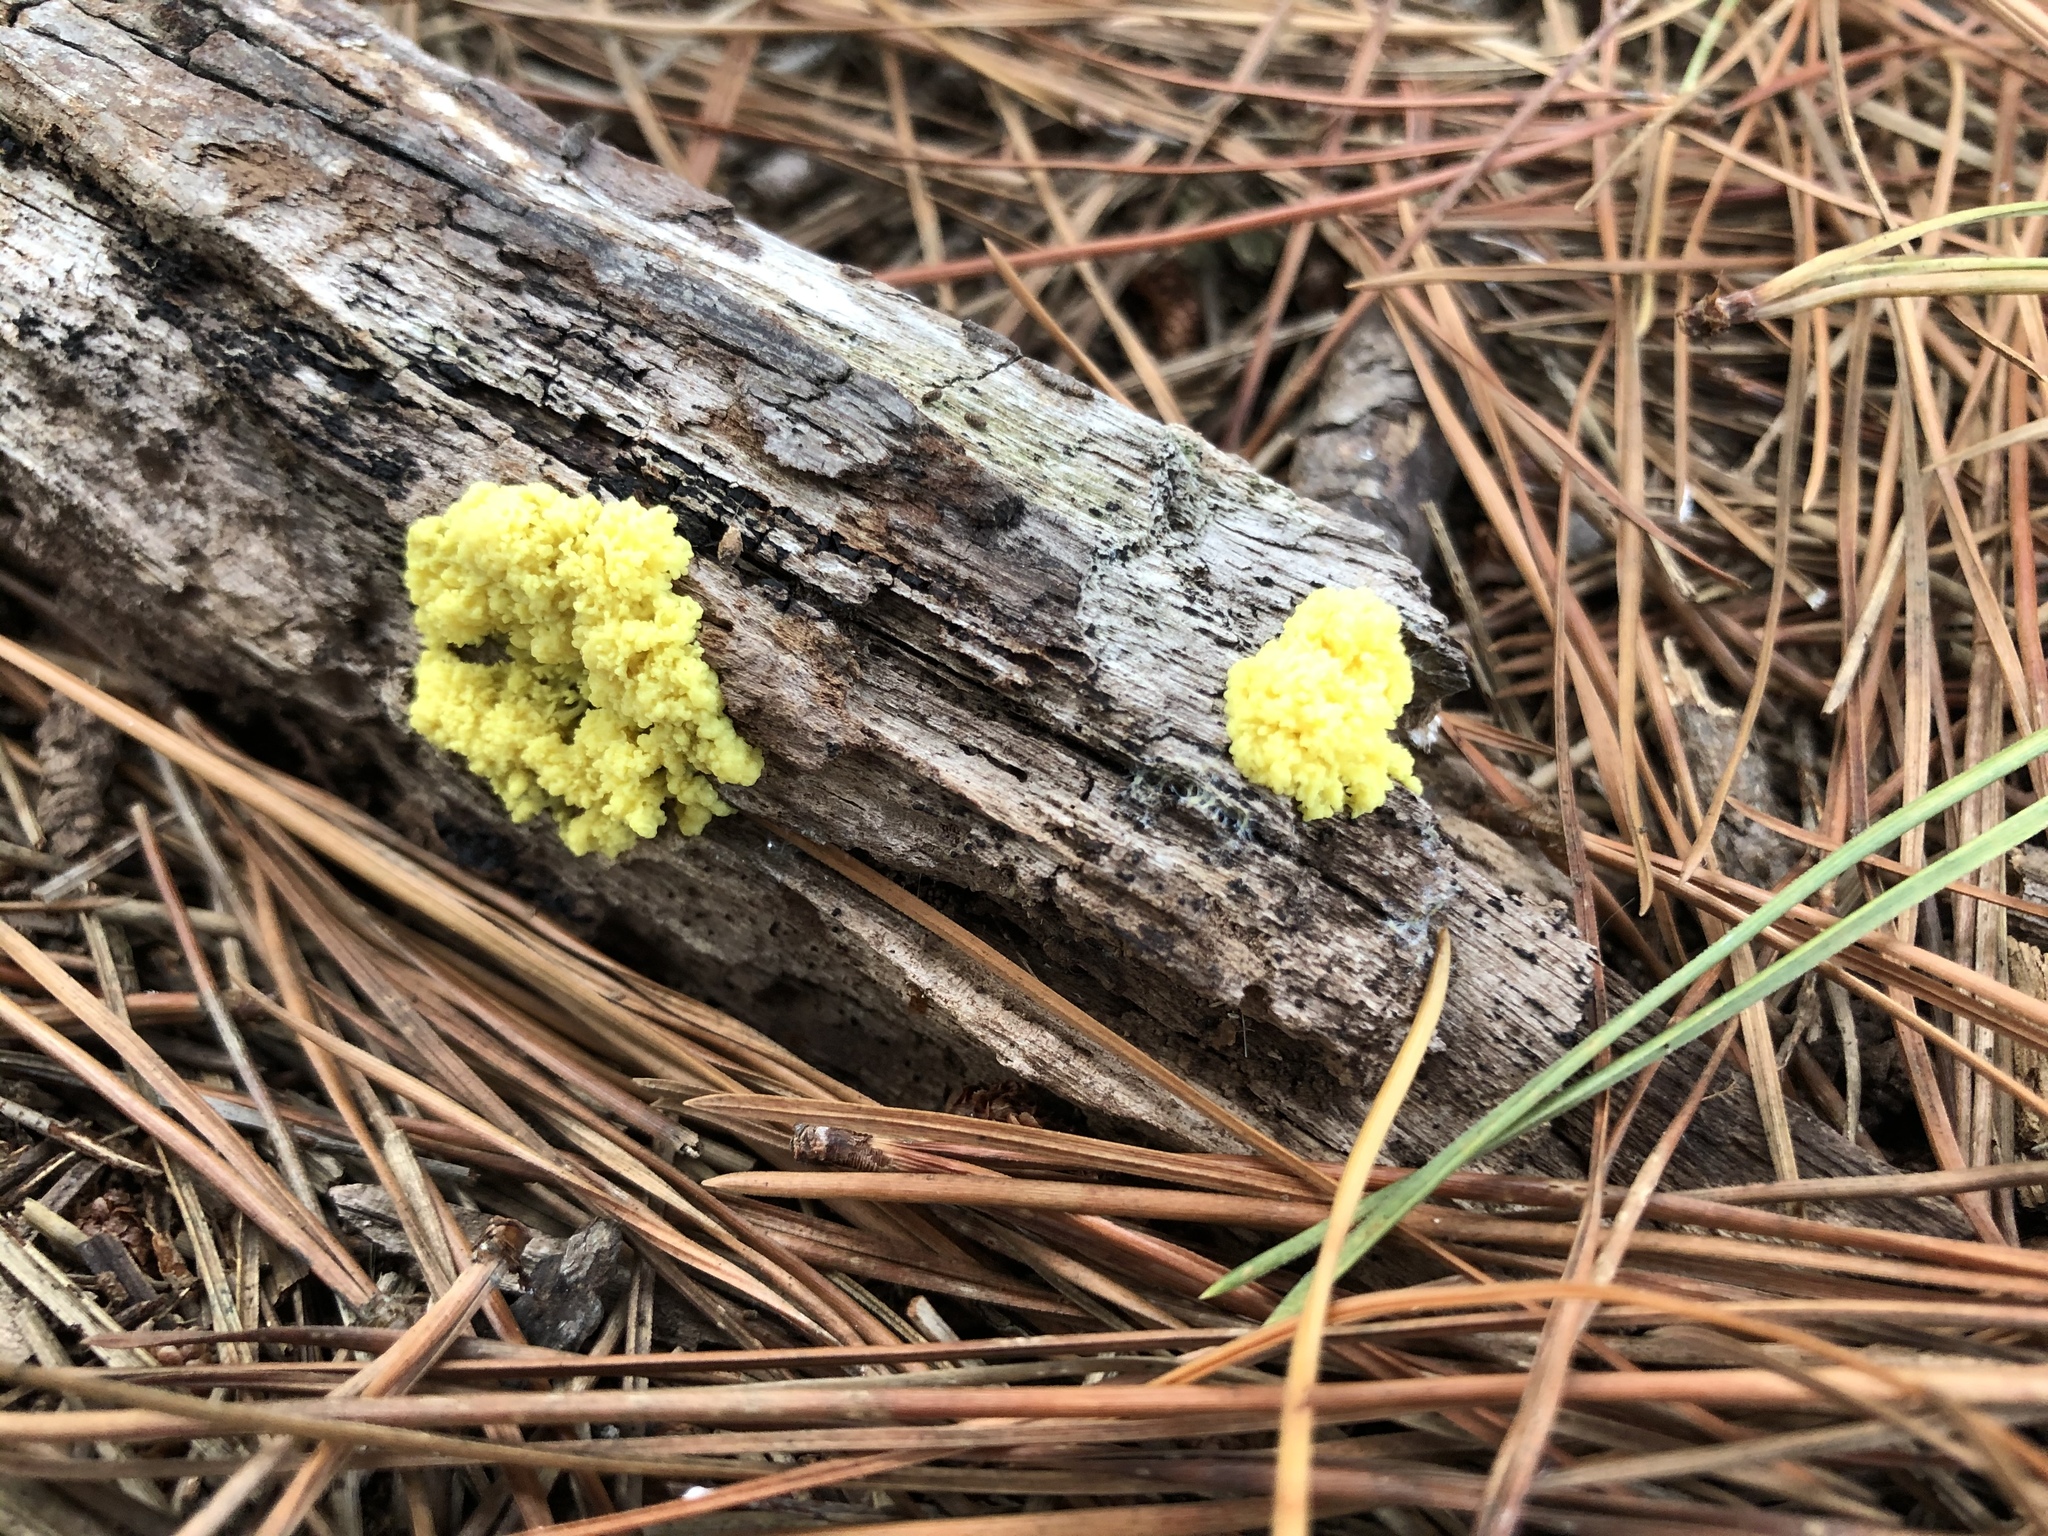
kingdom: Protozoa
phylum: Mycetozoa
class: Myxomycetes
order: Physarales
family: Physaraceae
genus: Fuligo
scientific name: Fuligo septica
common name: Dog vomit slime mold
